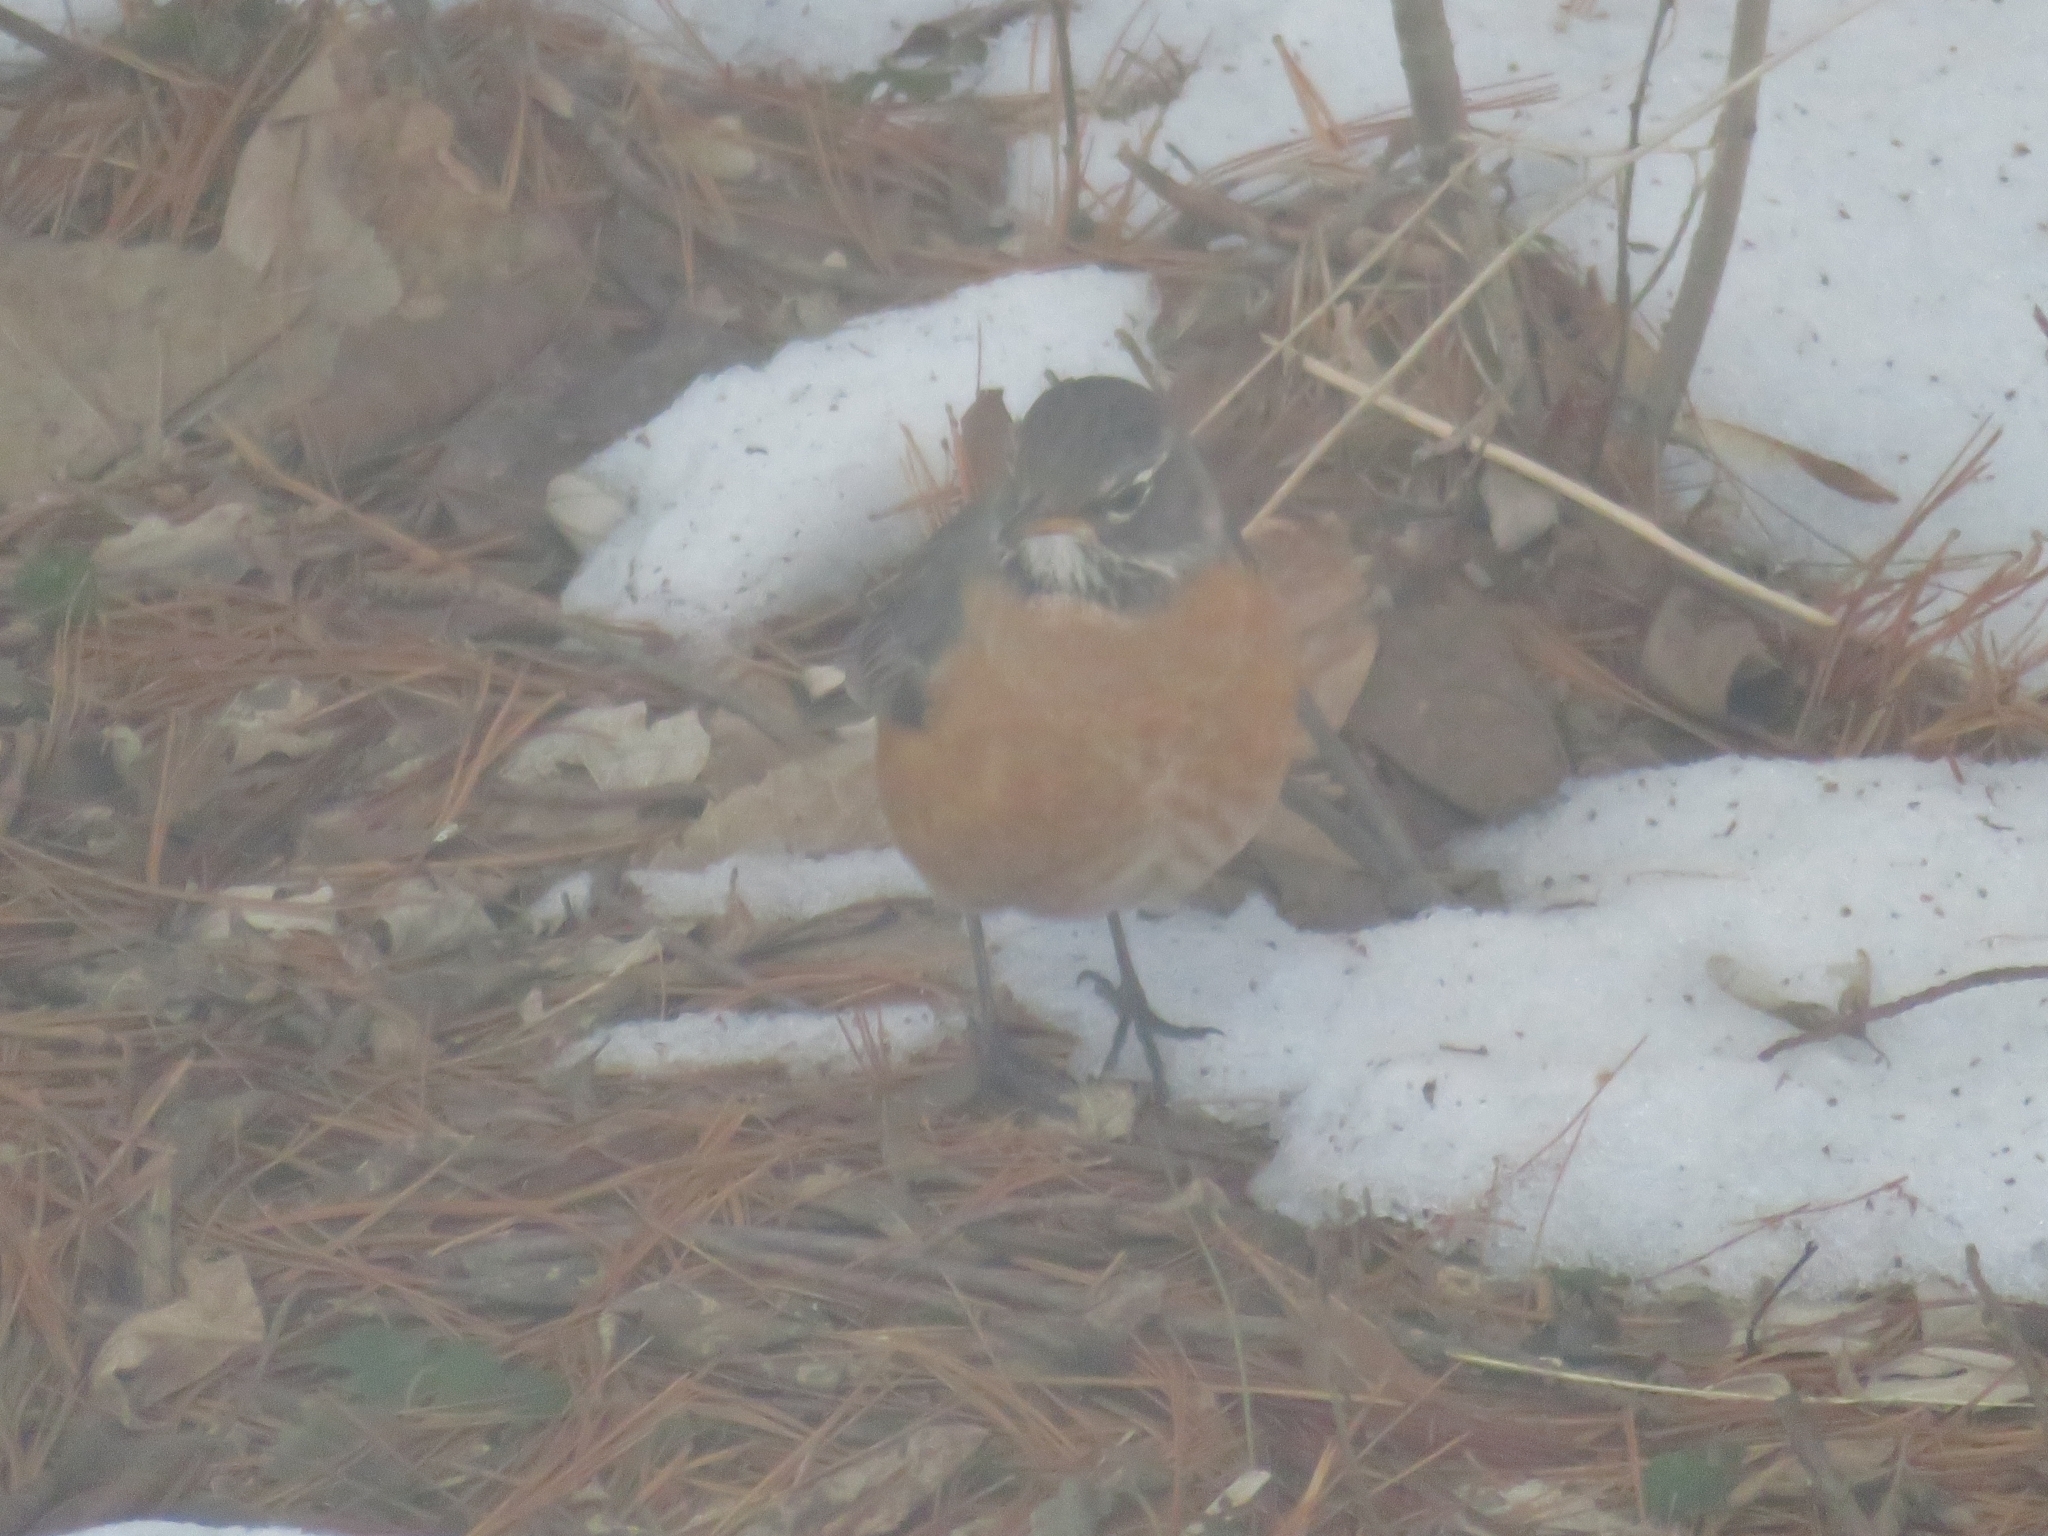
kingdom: Animalia
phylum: Chordata
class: Aves
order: Passeriformes
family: Turdidae
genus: Turdus
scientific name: Turdus migratorius
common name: American robin
